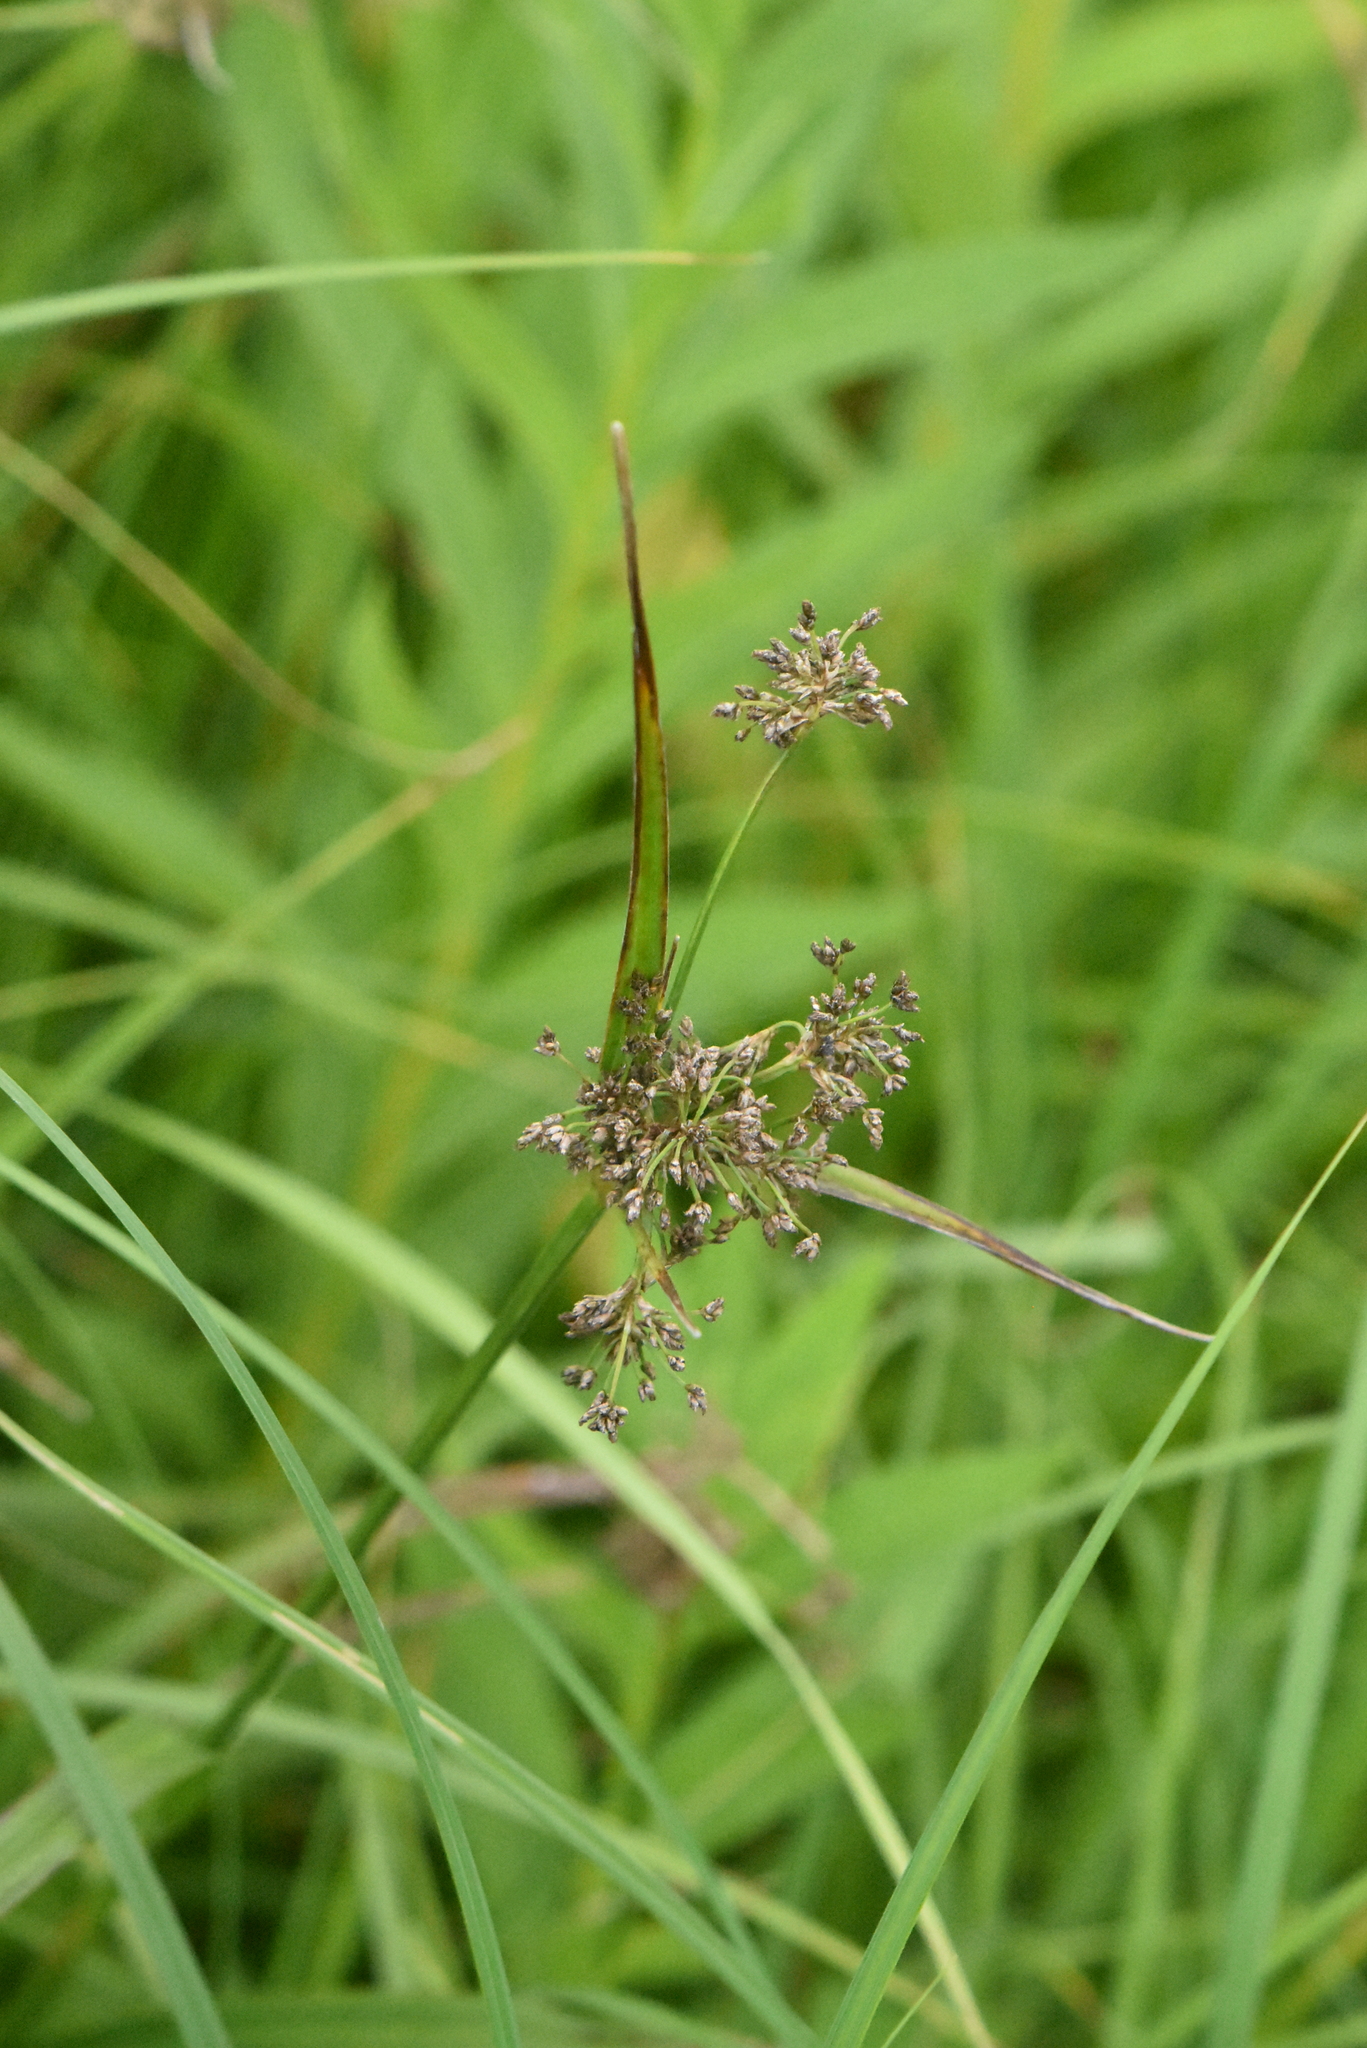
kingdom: Plantae
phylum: Tracheophyta
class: Liliopsida
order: Poales
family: Cyperaceae
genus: Scirpus
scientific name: Scirpus sylvaticus
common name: Wood club-rush
